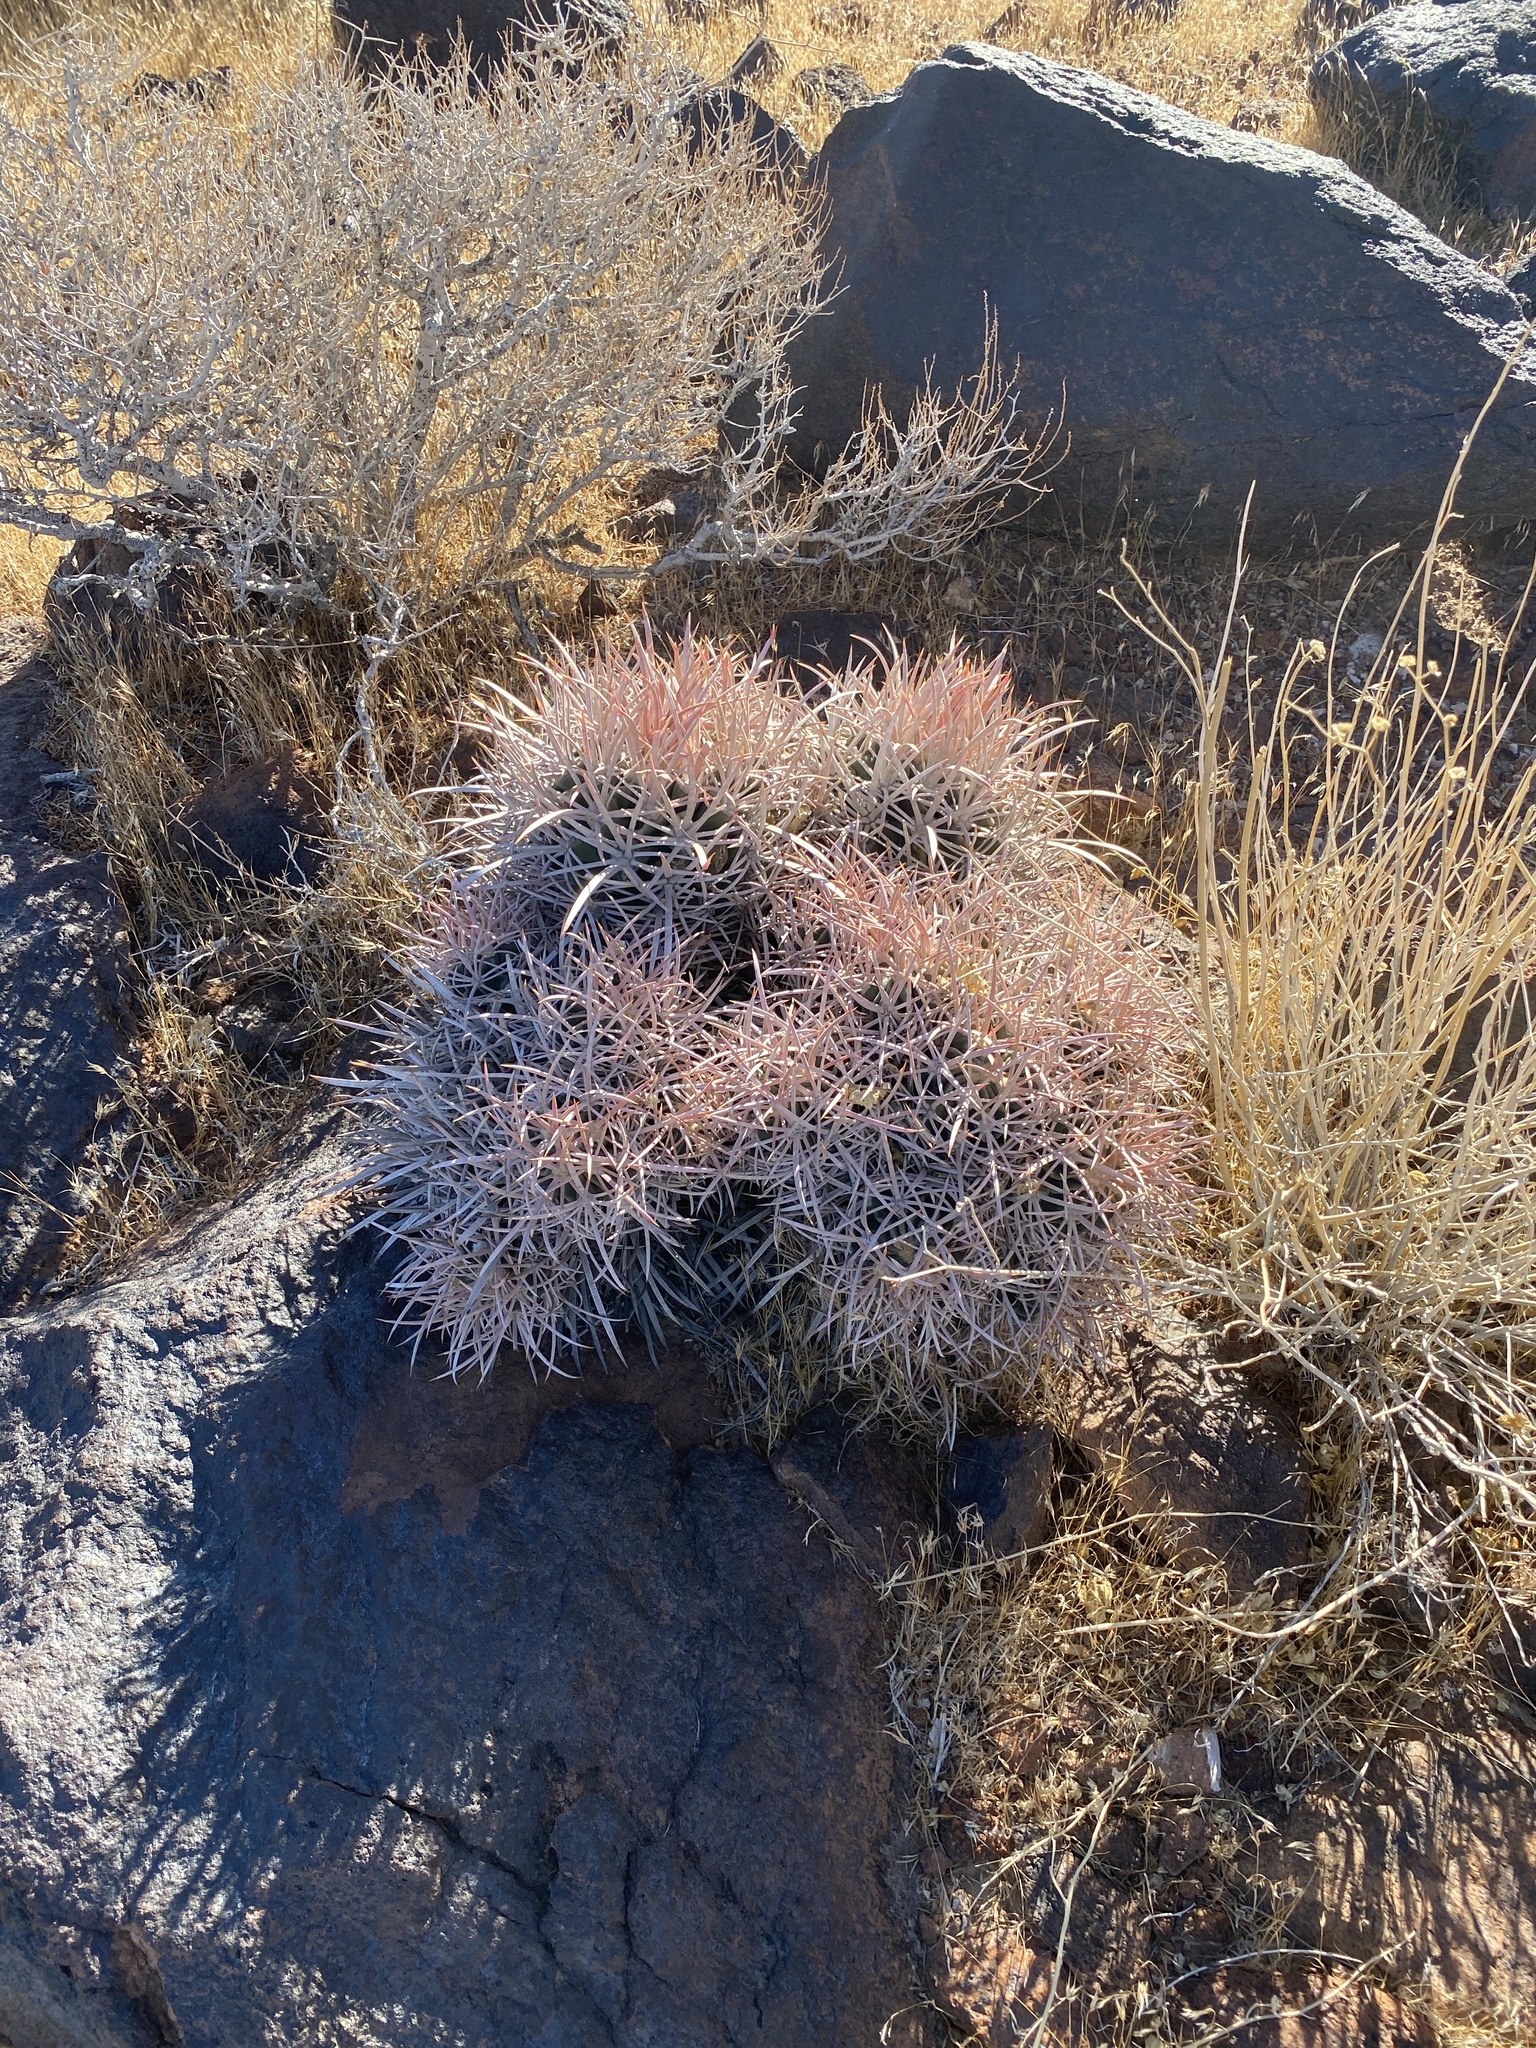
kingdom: Plantae
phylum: Tracheophyta
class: Magnoliopsida
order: Caryophyllales
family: Cactaceae
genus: Echinocactus
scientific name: Echinocactus polycephalus
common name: Cottontop cactus
